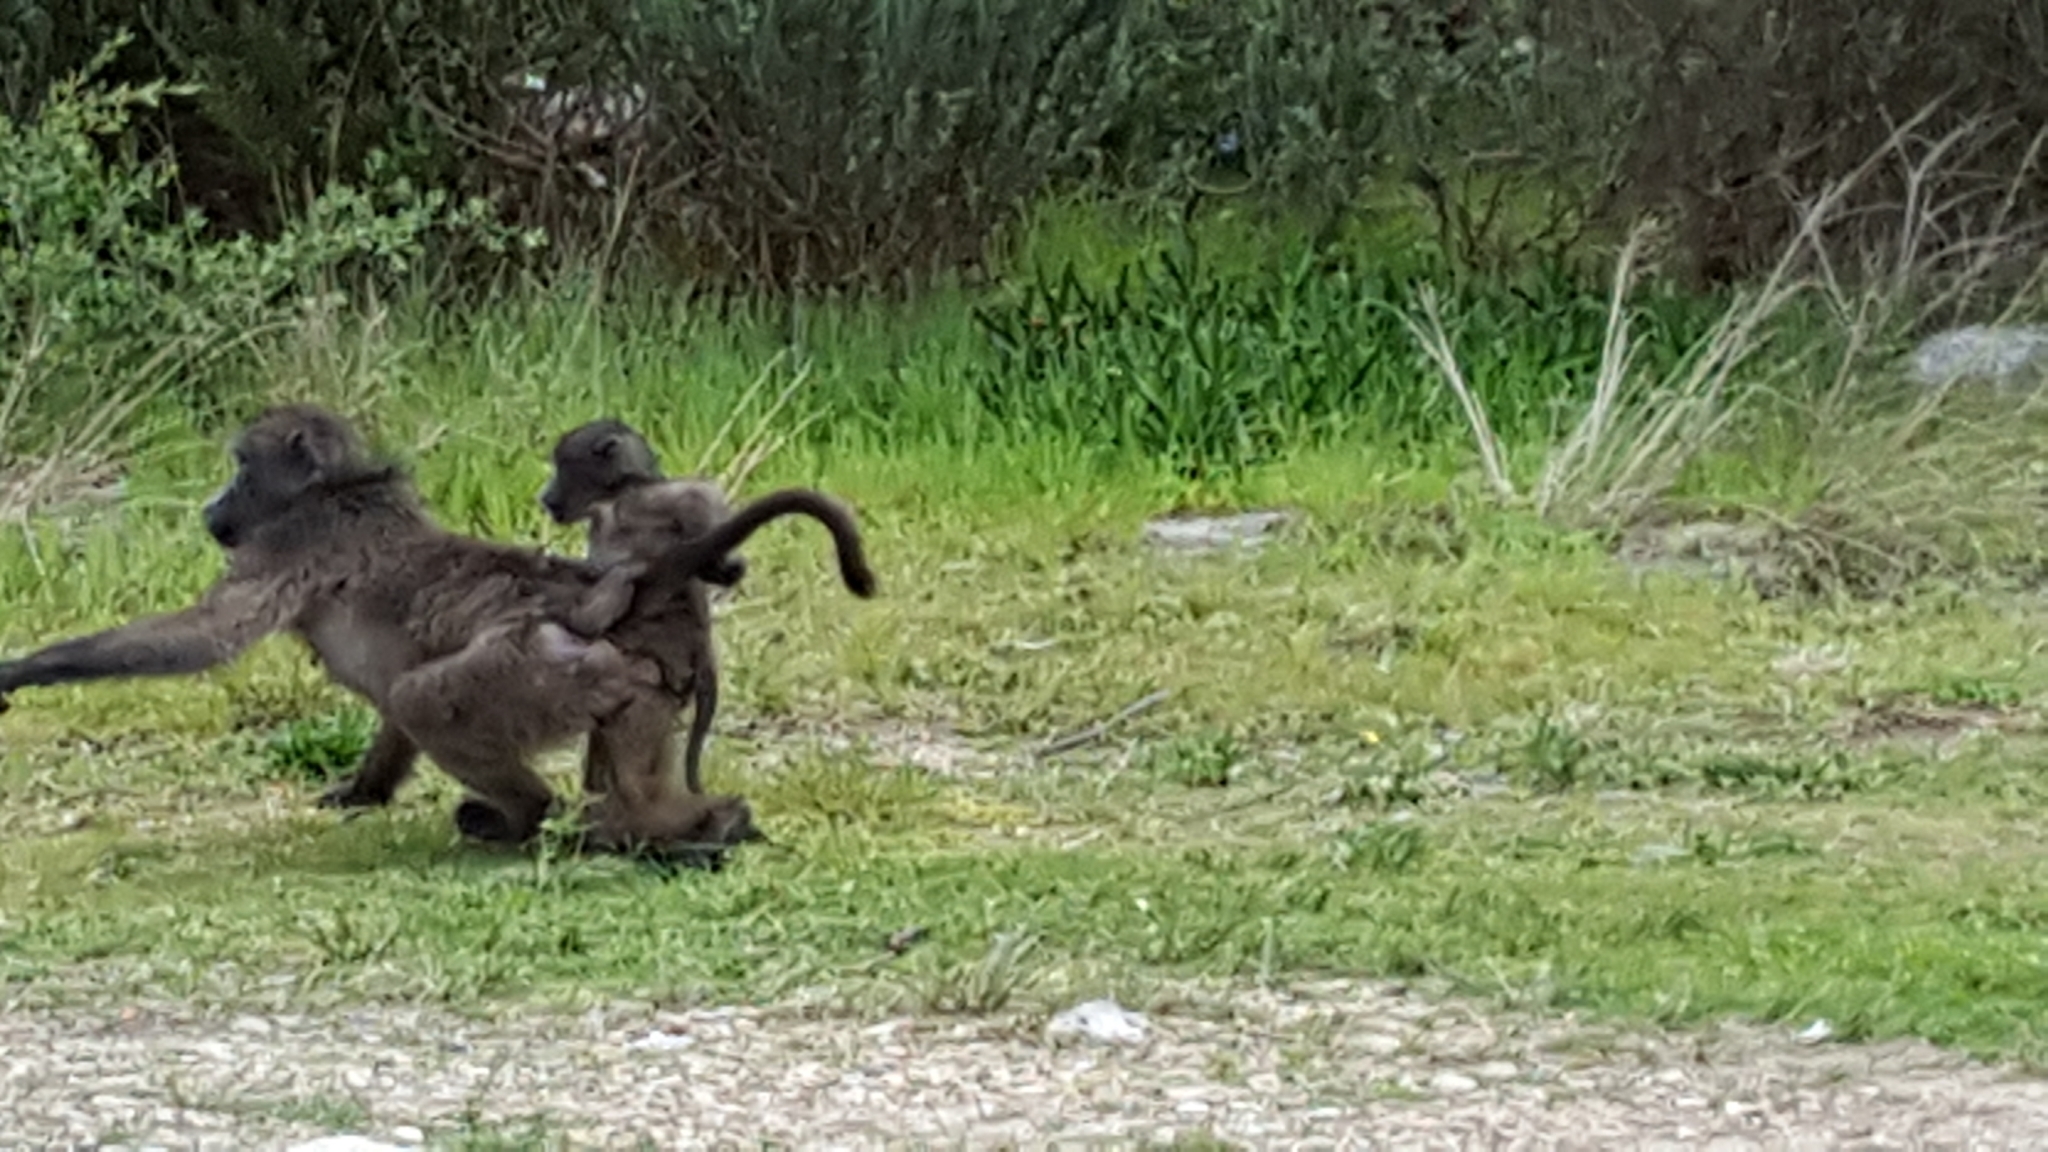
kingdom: Animalia
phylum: Chordata
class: Mammalia
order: Primates
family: Cercopithecidae
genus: Papio
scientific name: Papio ursinus
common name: Chacma baboon
